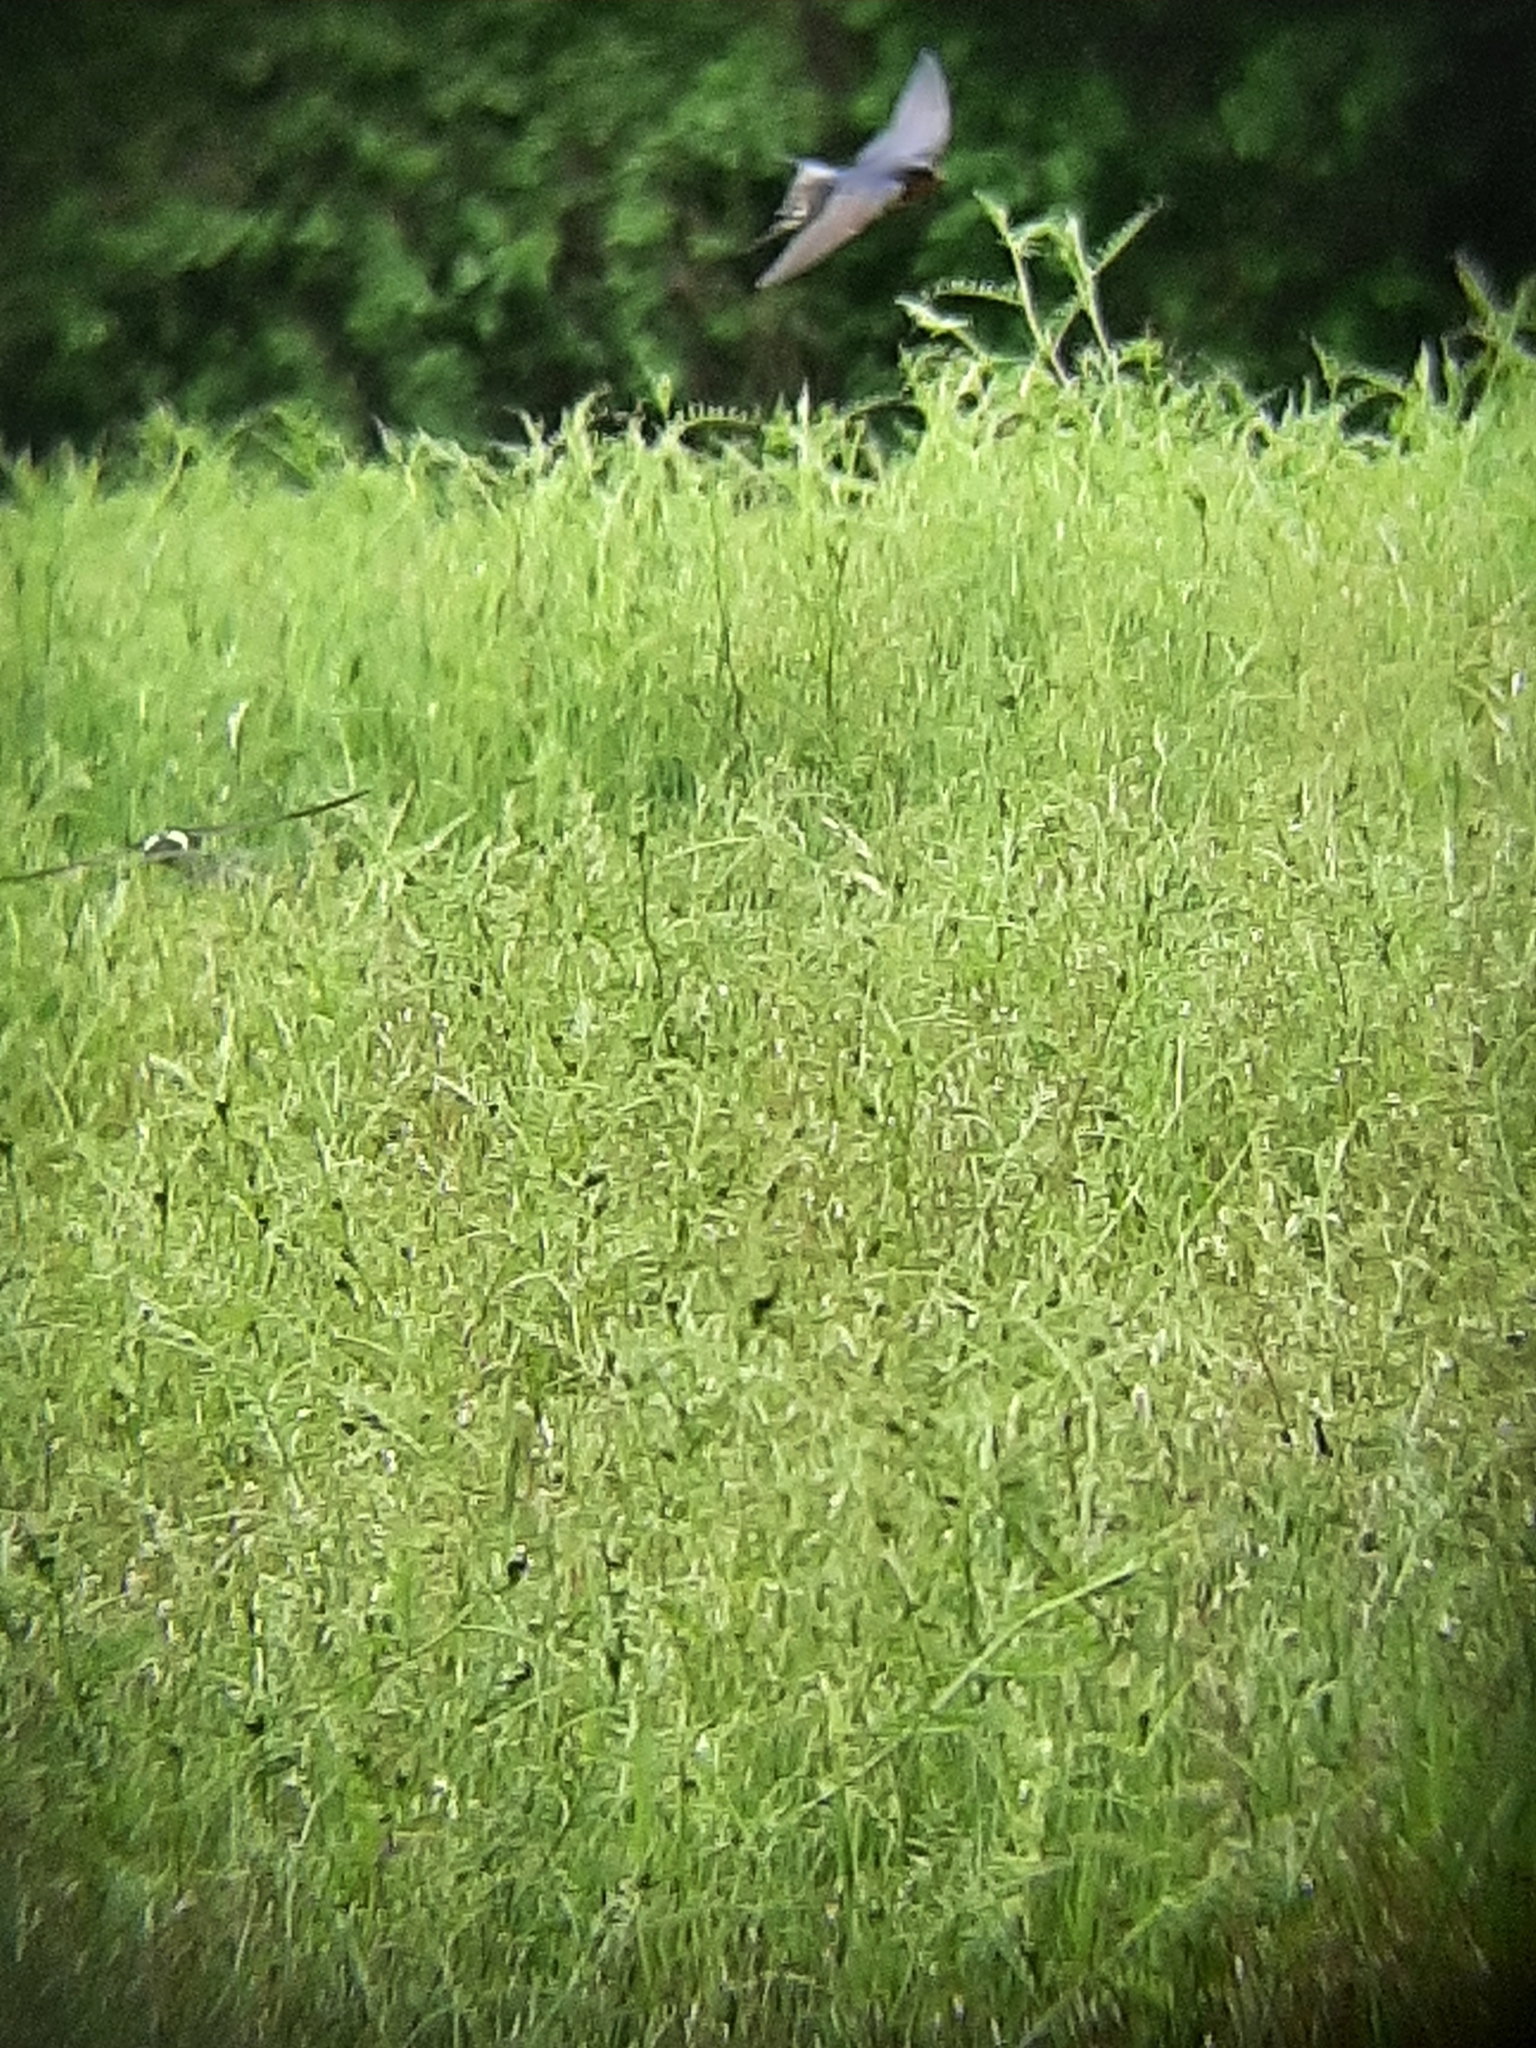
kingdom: Animalia
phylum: Chordata
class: Aves
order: Passeriformes
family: Hirundinidae
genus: Hirundo
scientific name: Hirundo rustica
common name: Barn swallow
